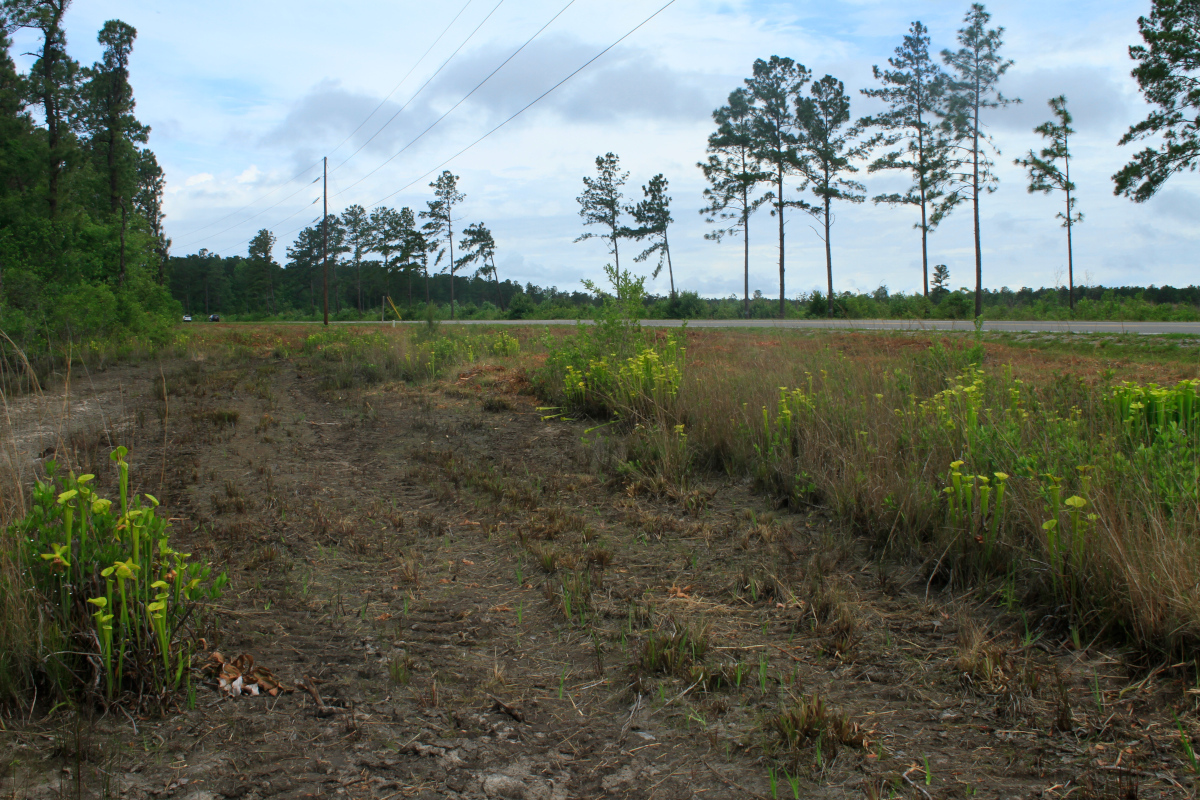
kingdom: Plantae
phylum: Tracheophyta
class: Magnoliopsida
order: Ericales
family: Sarraceniaceae
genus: Sarracenia
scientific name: Sarracenia flava
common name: Trumpets
